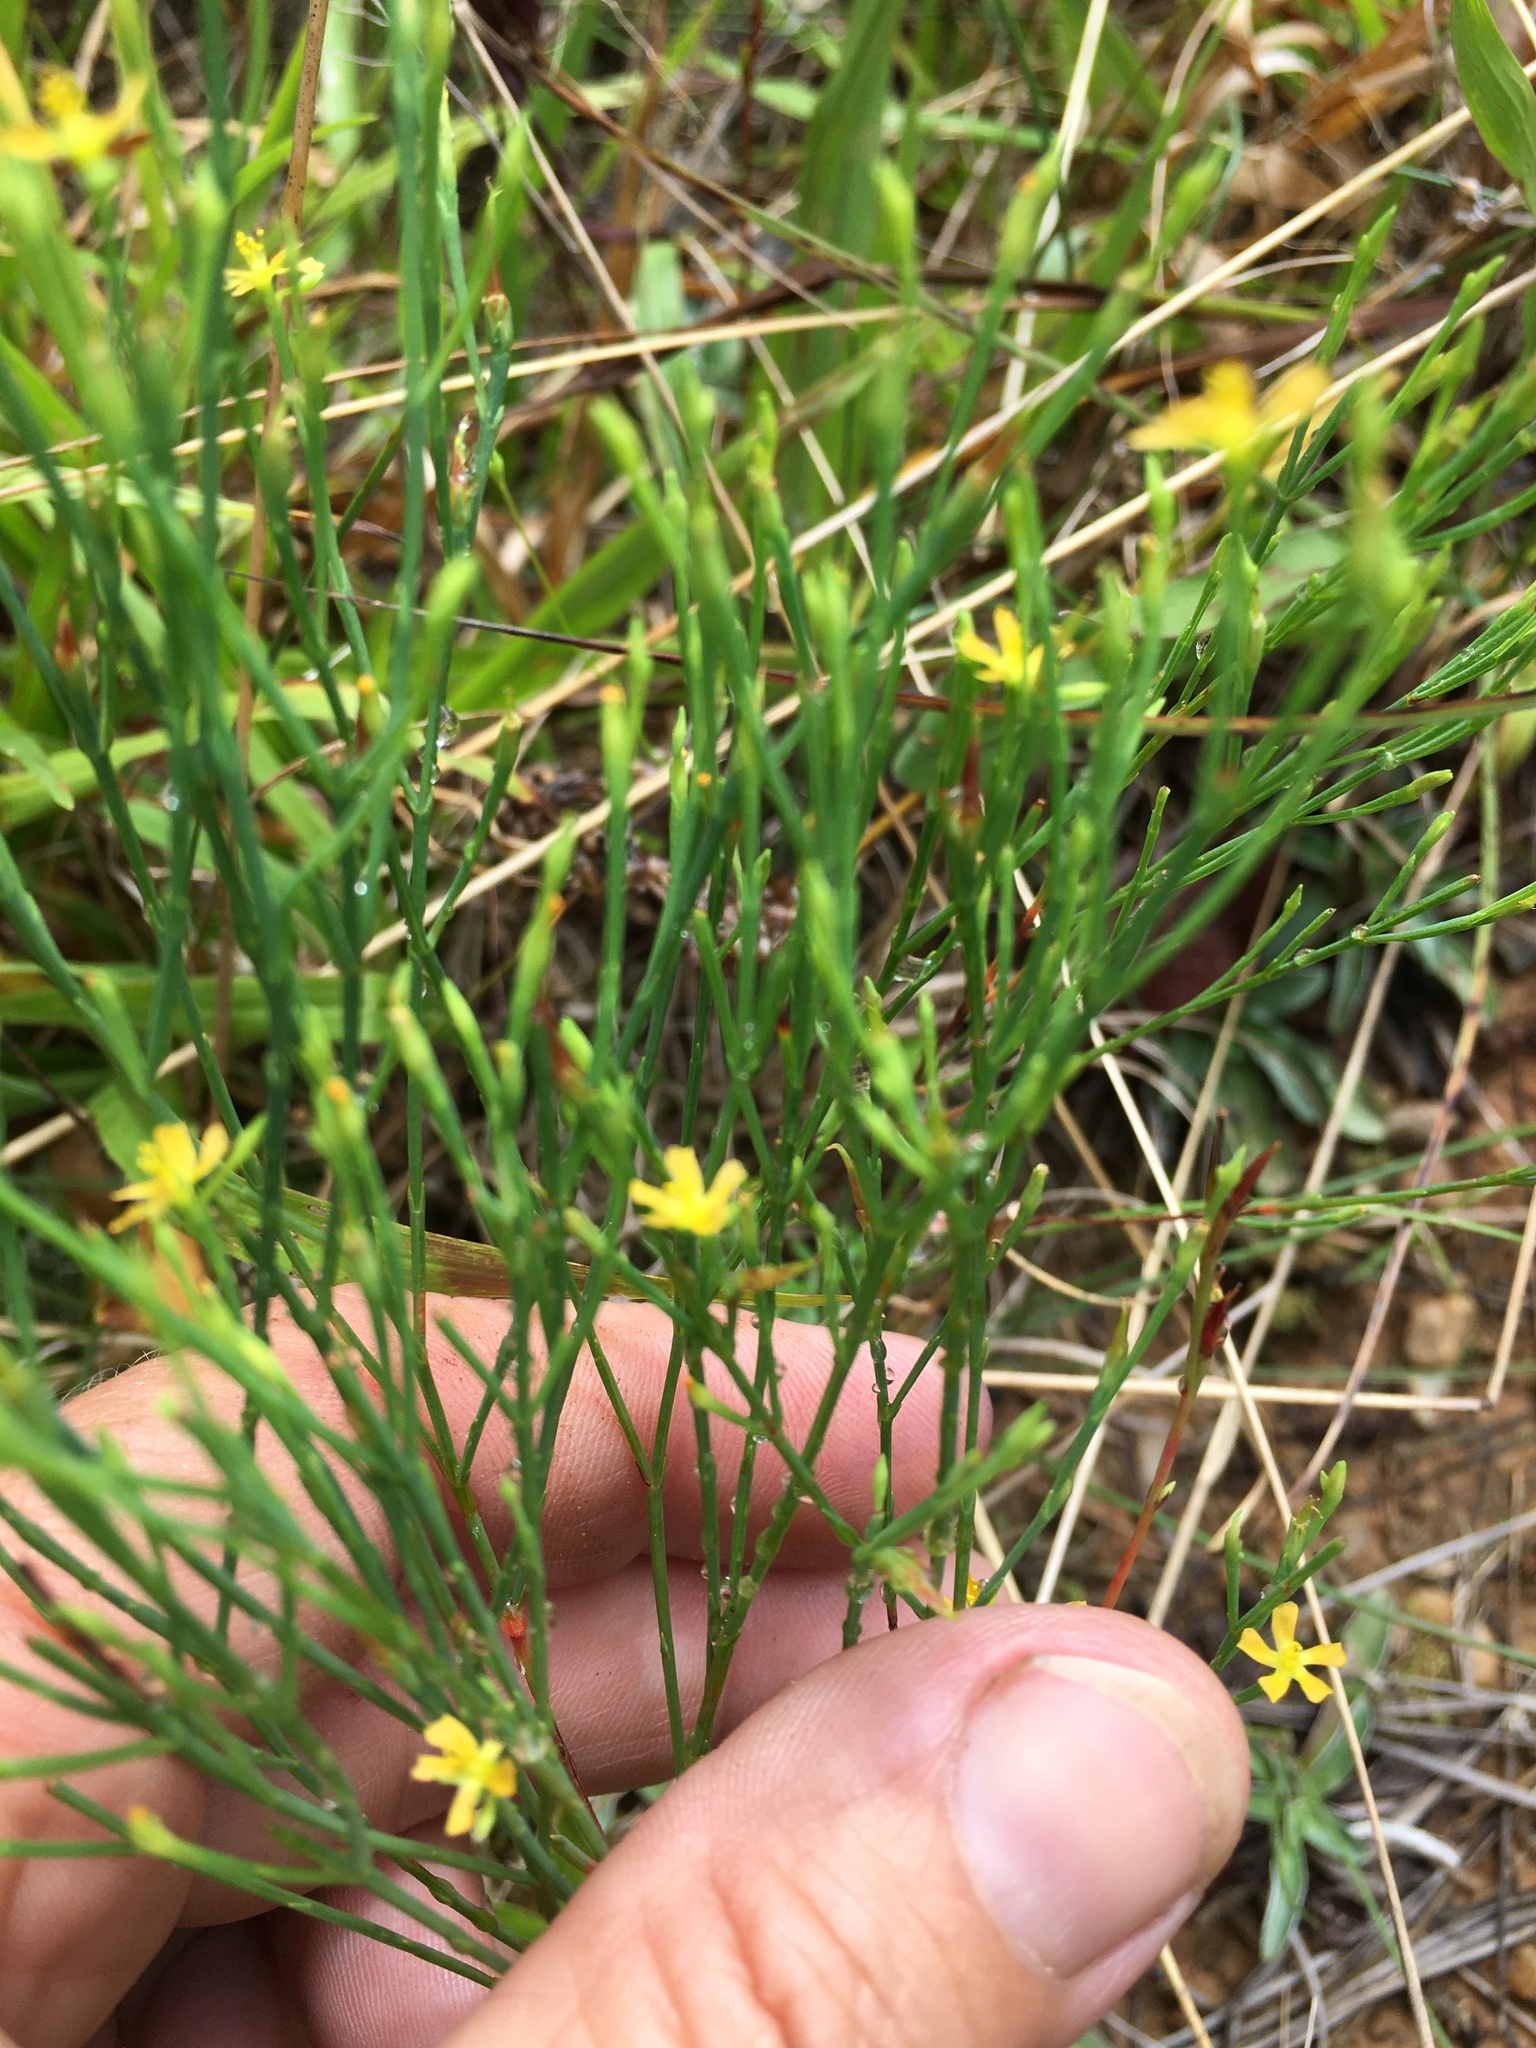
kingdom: Plantae
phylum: Tracheophyta
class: Magnoliopsida
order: Malpighiales
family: Hypericaceae
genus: Hypericum
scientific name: Hypericum gentianoides
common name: Gentian-leaved st. john's-wort
